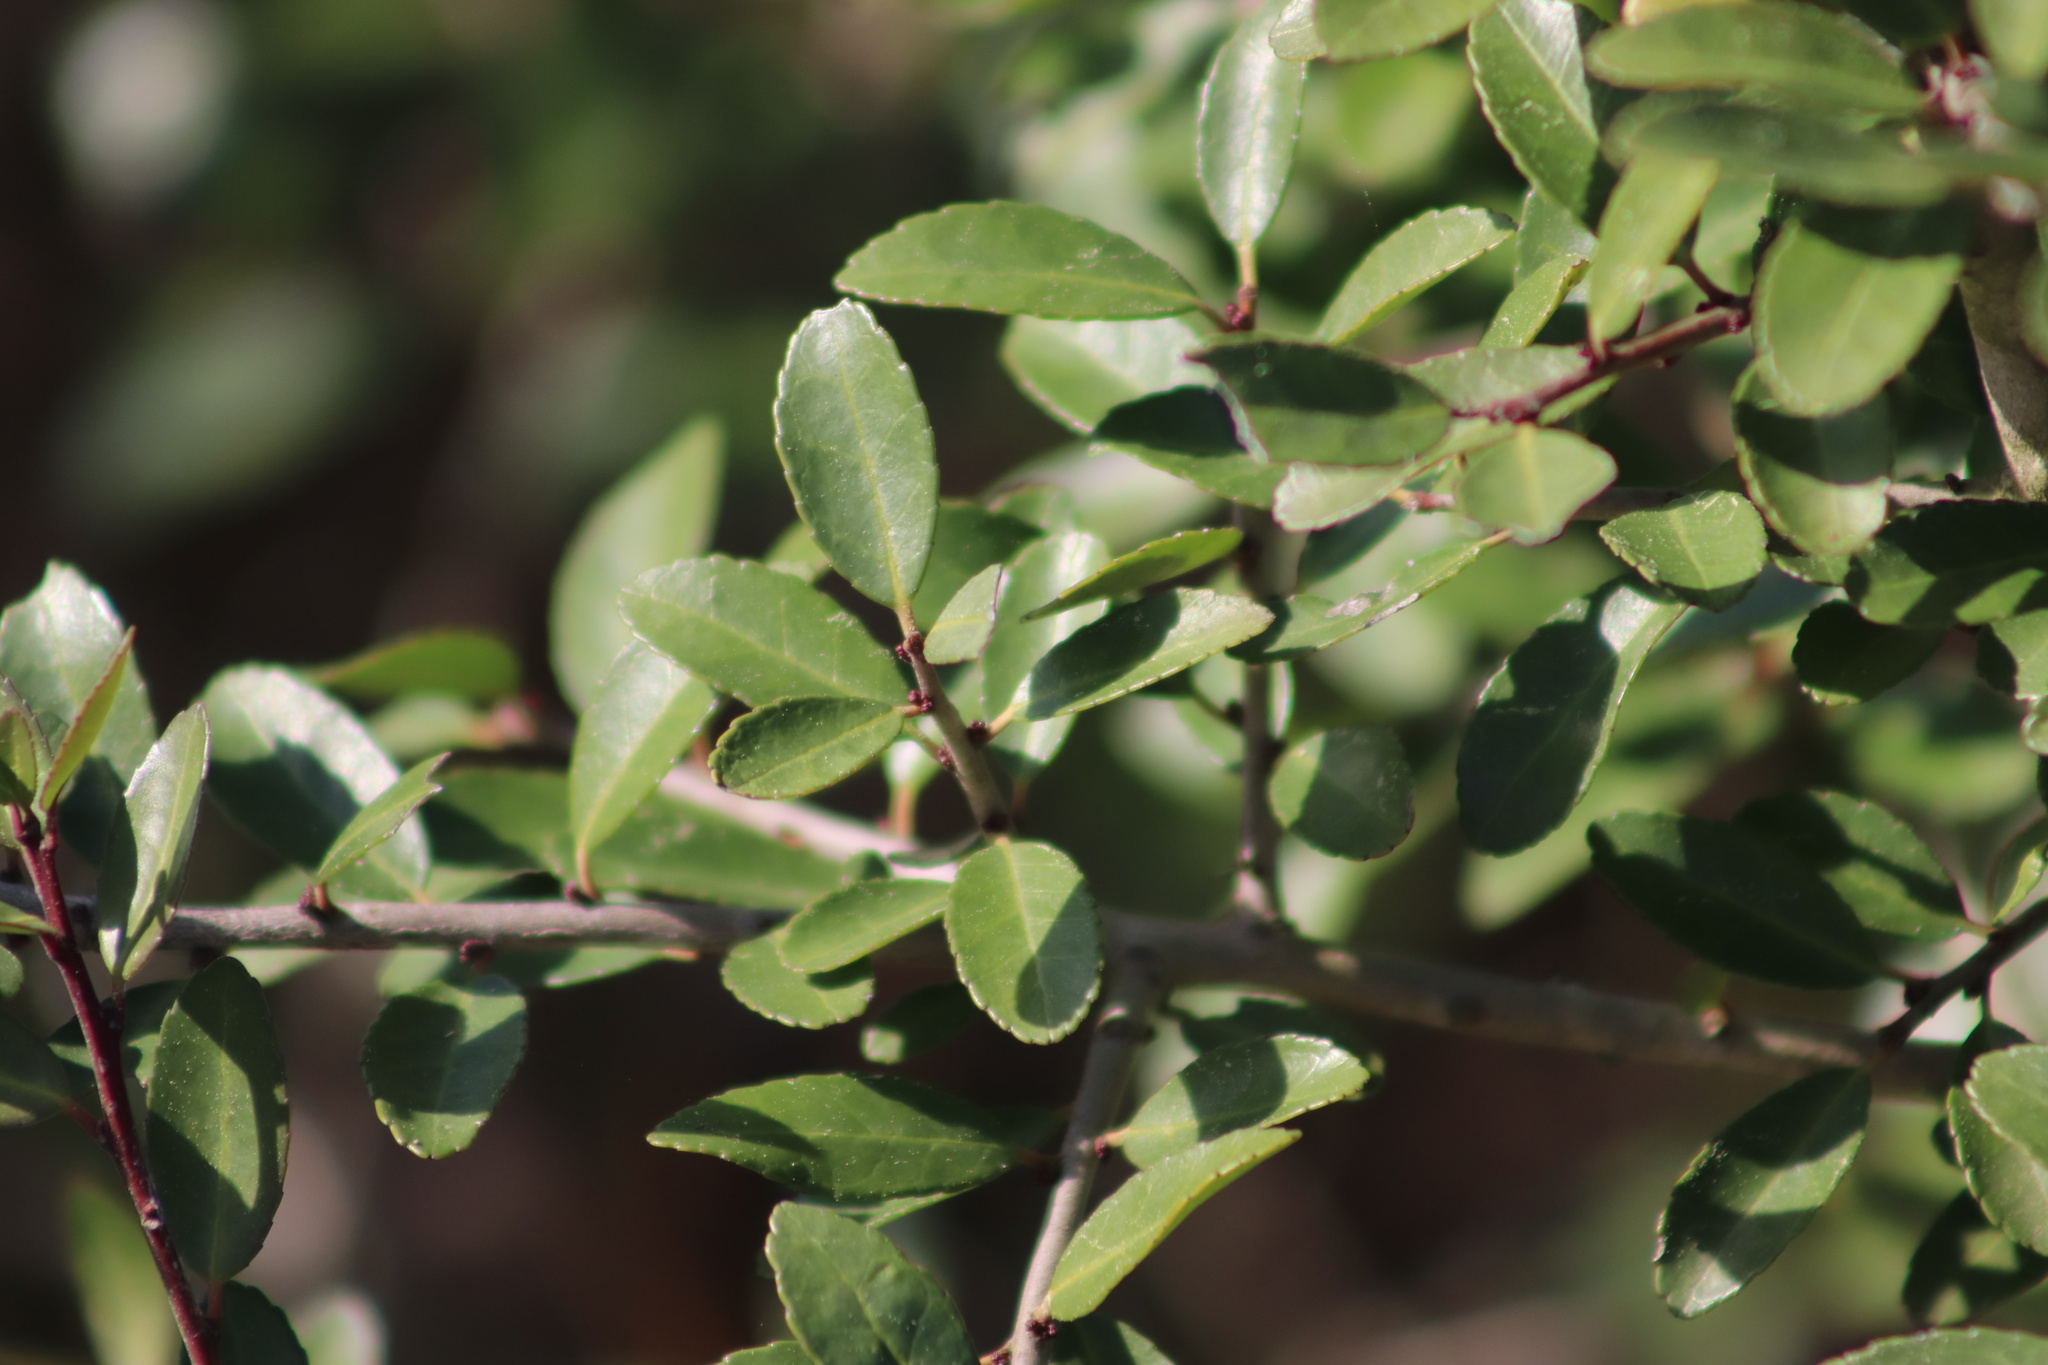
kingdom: Plantae
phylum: Tracheophyta
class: Magnoliopsida
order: Aquifoliales
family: Aquifoliaceae
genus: Ilex
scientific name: Ilex vomitoria
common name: Yaupon holly
